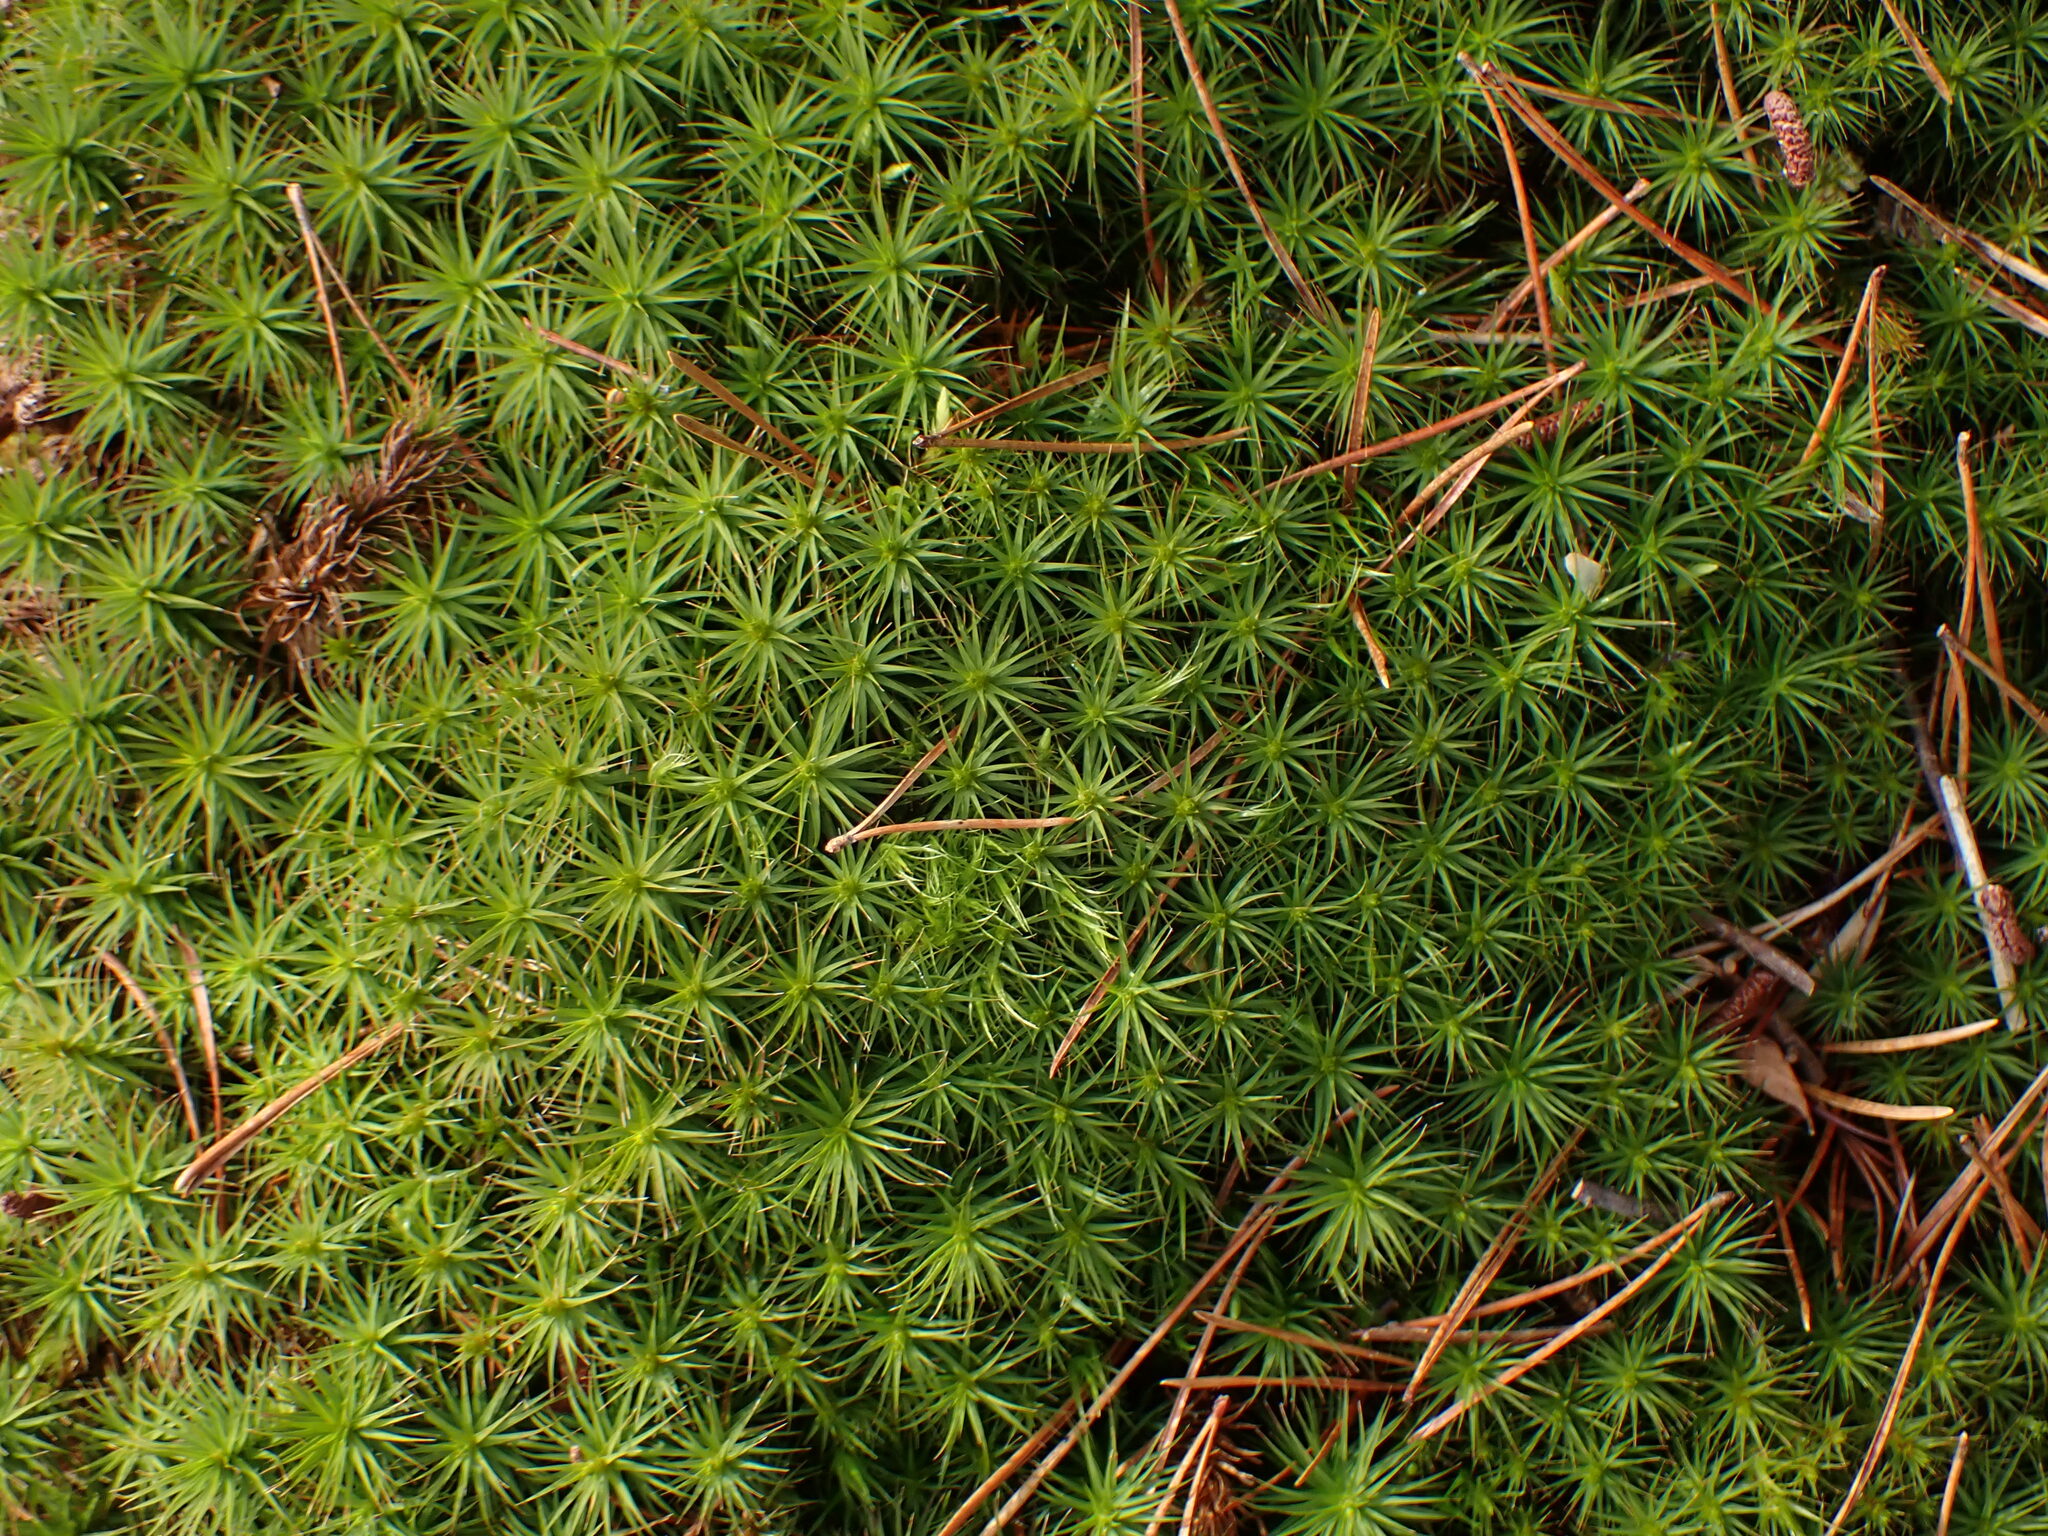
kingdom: Plantae
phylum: Bryophyta
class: Polytrichopsida
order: Polytrichales
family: Polytrichaceae
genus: Polytrichum
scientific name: Polytrichum commune
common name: Common haircap
